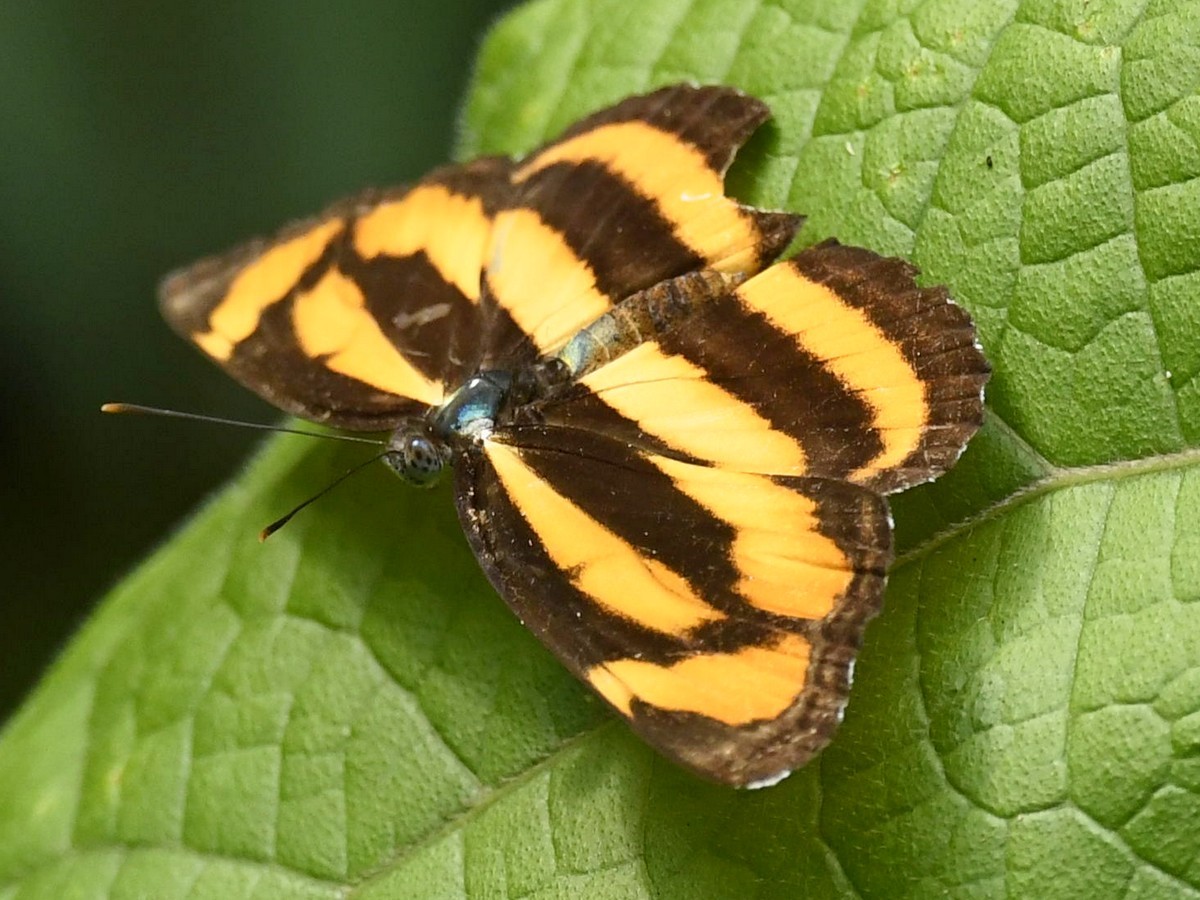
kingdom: Animalia
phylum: Arthropoda
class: Insecta
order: Lepidoptera
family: Nymphalidae
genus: Pantoporia
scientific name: Pantoporia hordonia
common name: Common lascar
